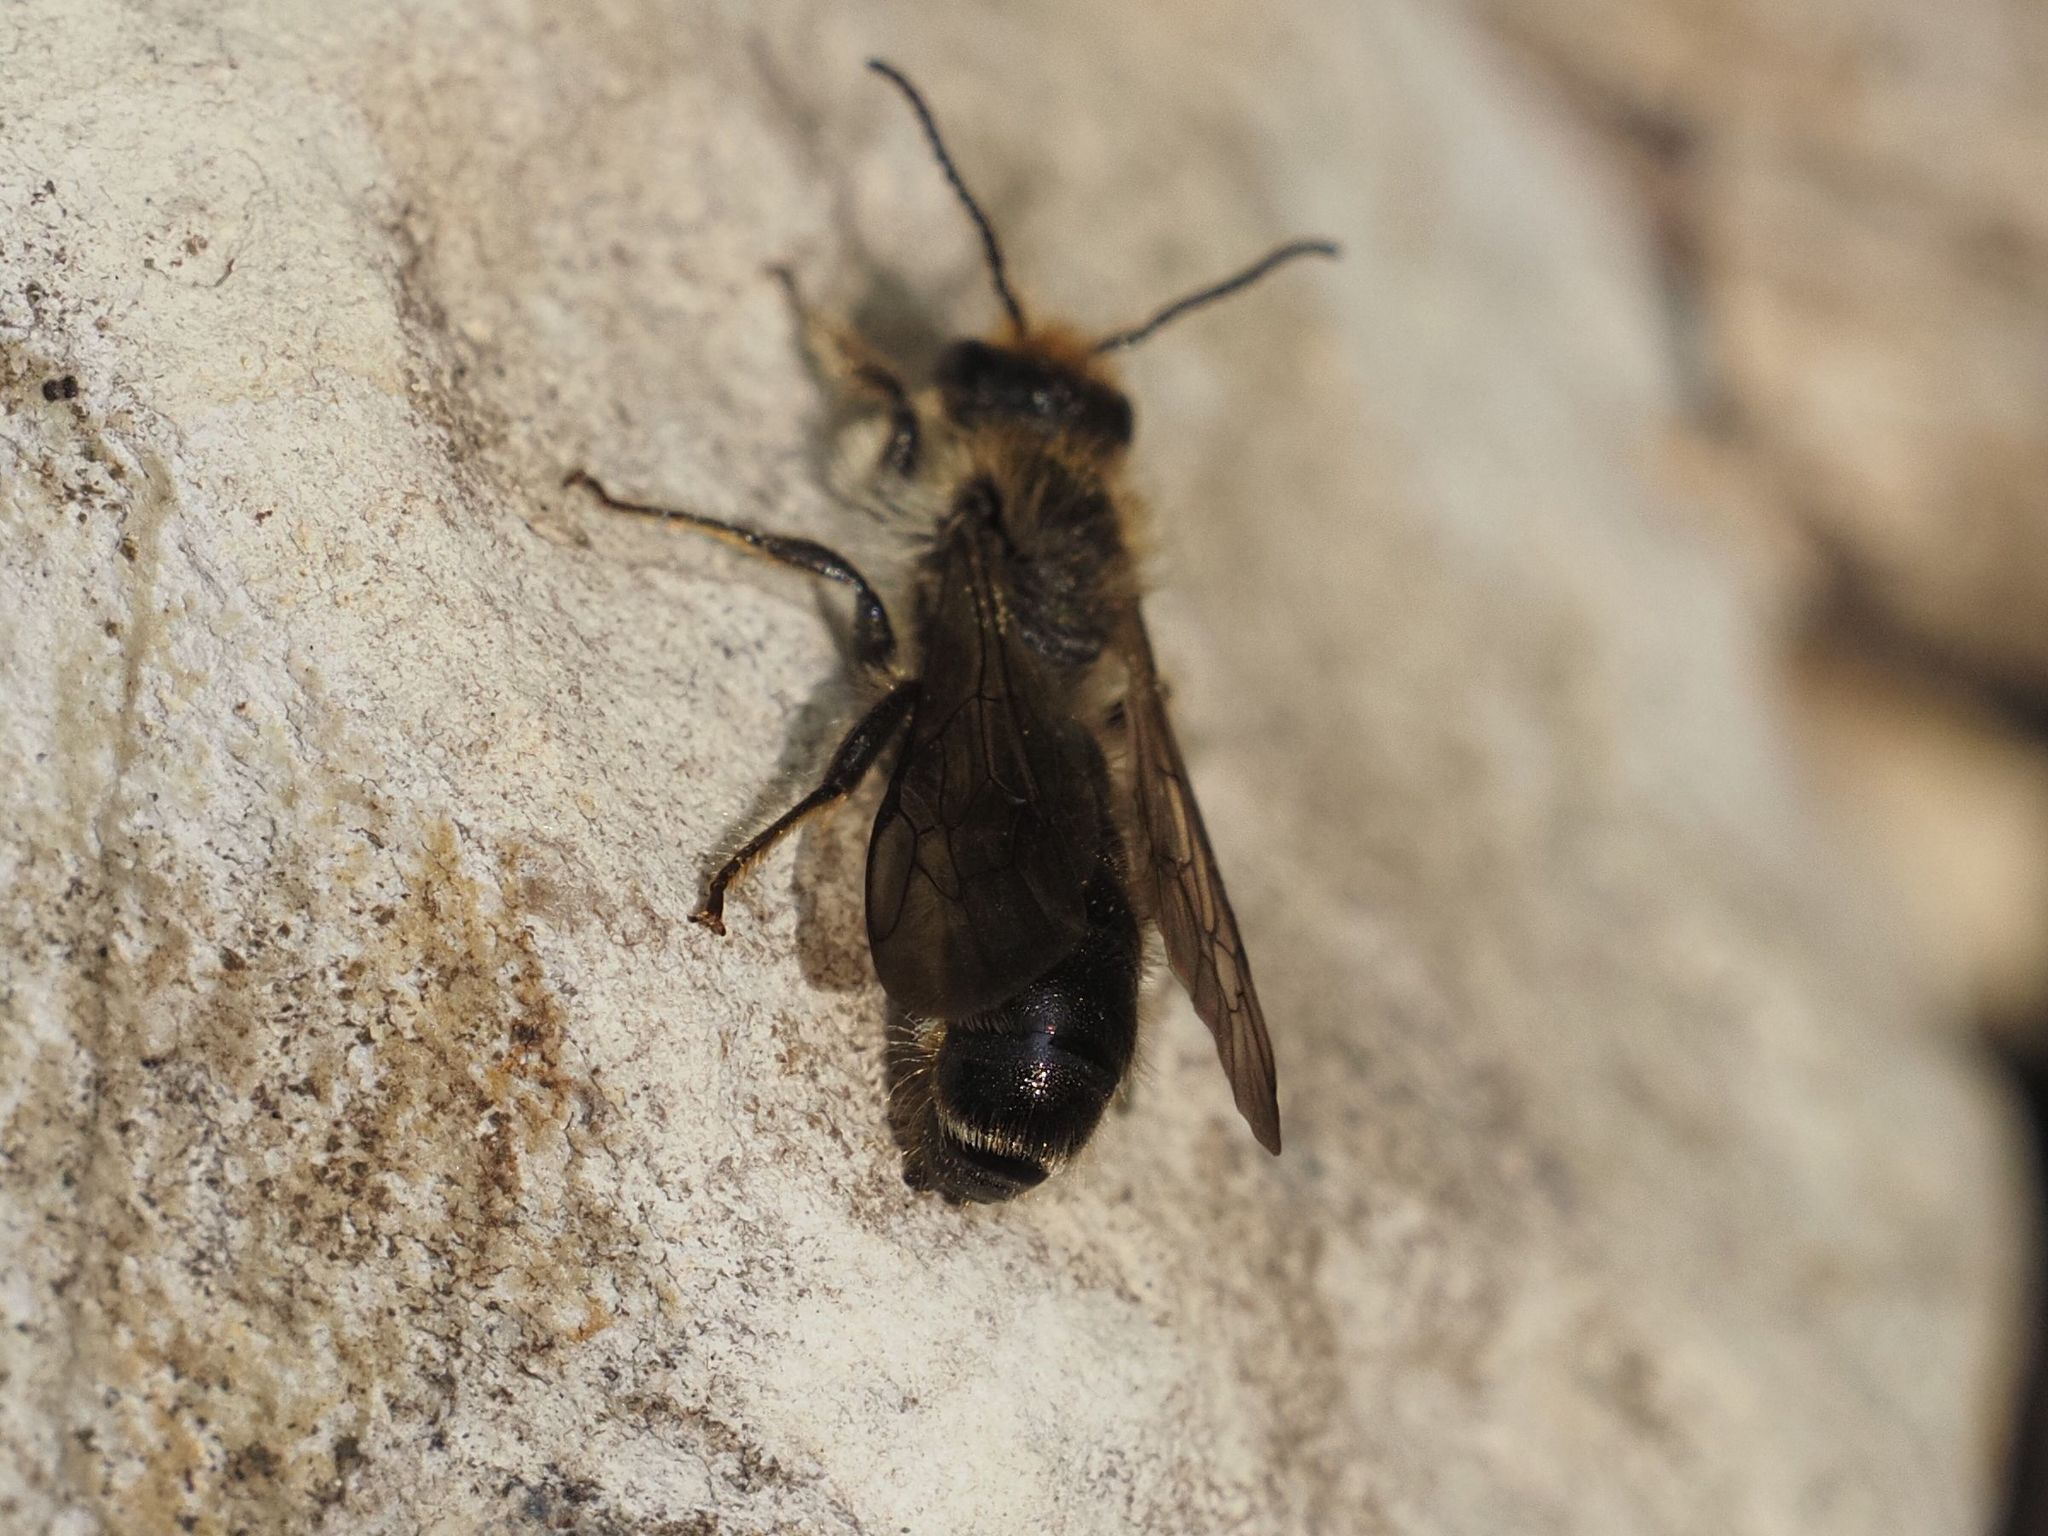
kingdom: Animalia
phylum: Arthropoda
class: Insecta
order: Hymenoptera
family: Megachilidae
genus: Chelostoma
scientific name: Chelostoma florisomne
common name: Sleepy carpenter bee
